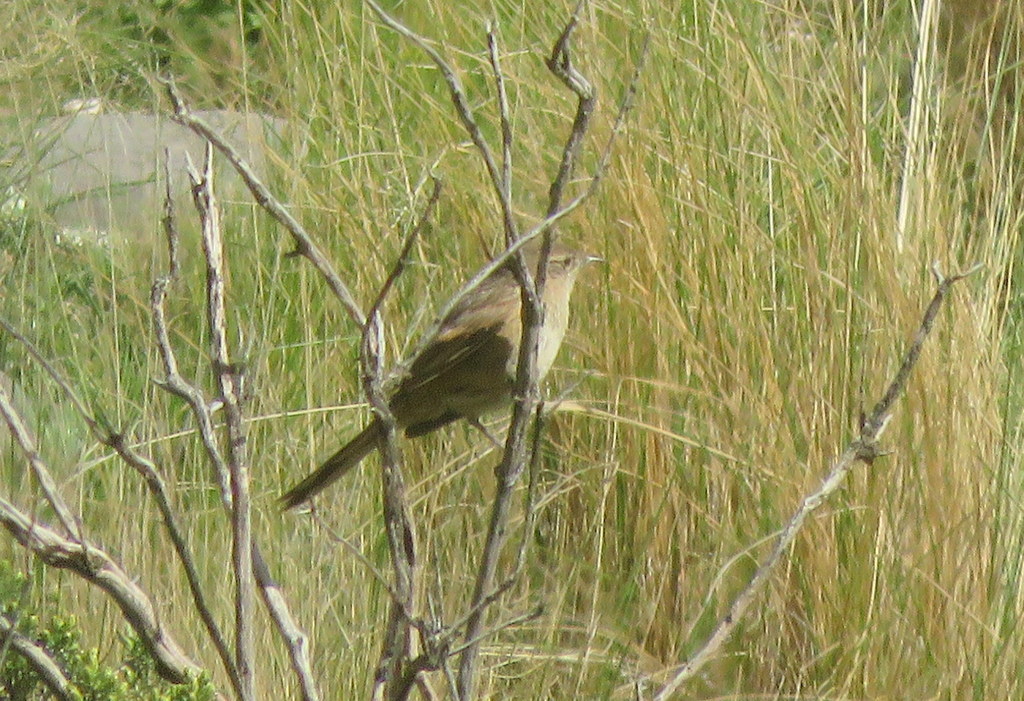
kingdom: Animalia
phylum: Chordata
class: Aves
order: Passeriformes
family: Furnariidae
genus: Asthenes
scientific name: Asthenes wyatti
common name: Streak-backed canastero
